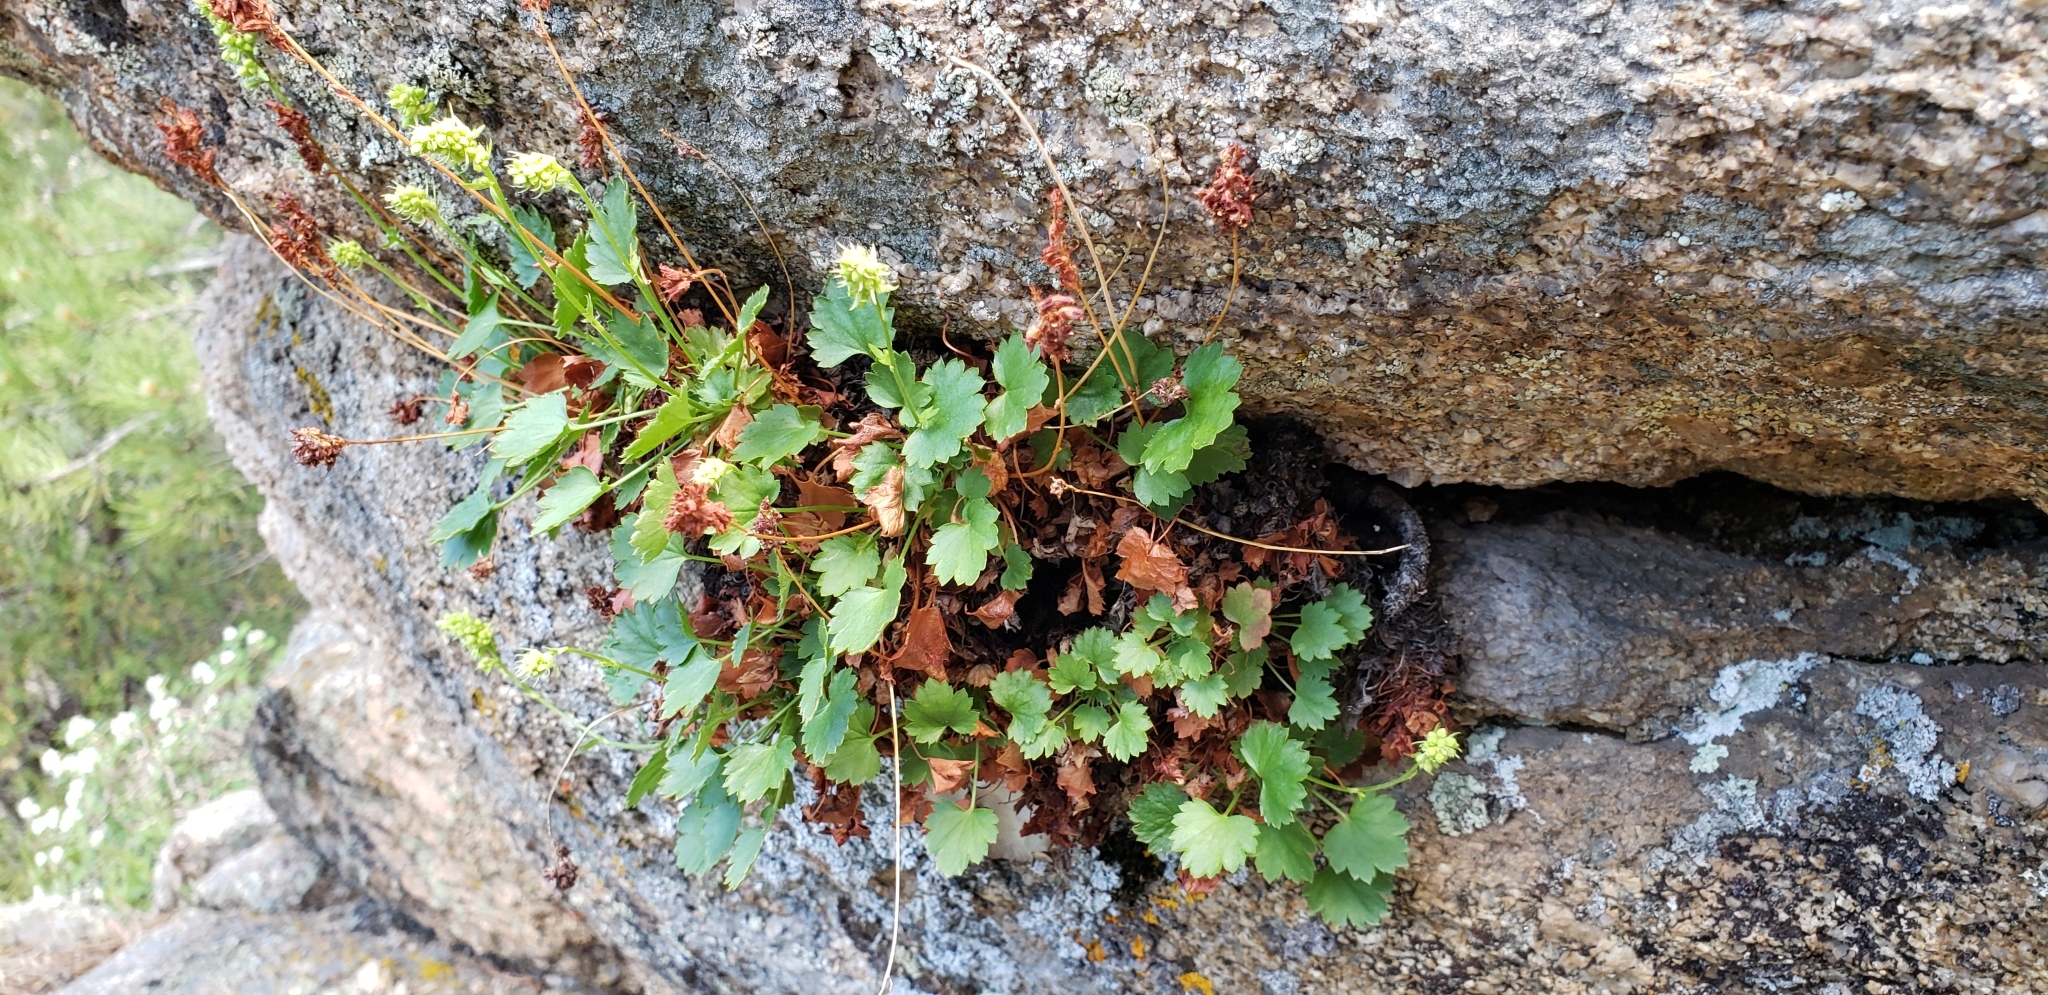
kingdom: Plantae
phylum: Tracheophyta
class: Magnoliopsida
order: Saxifragales
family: Saxifragaceae
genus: Heuchera
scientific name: Heuchera bracteata
